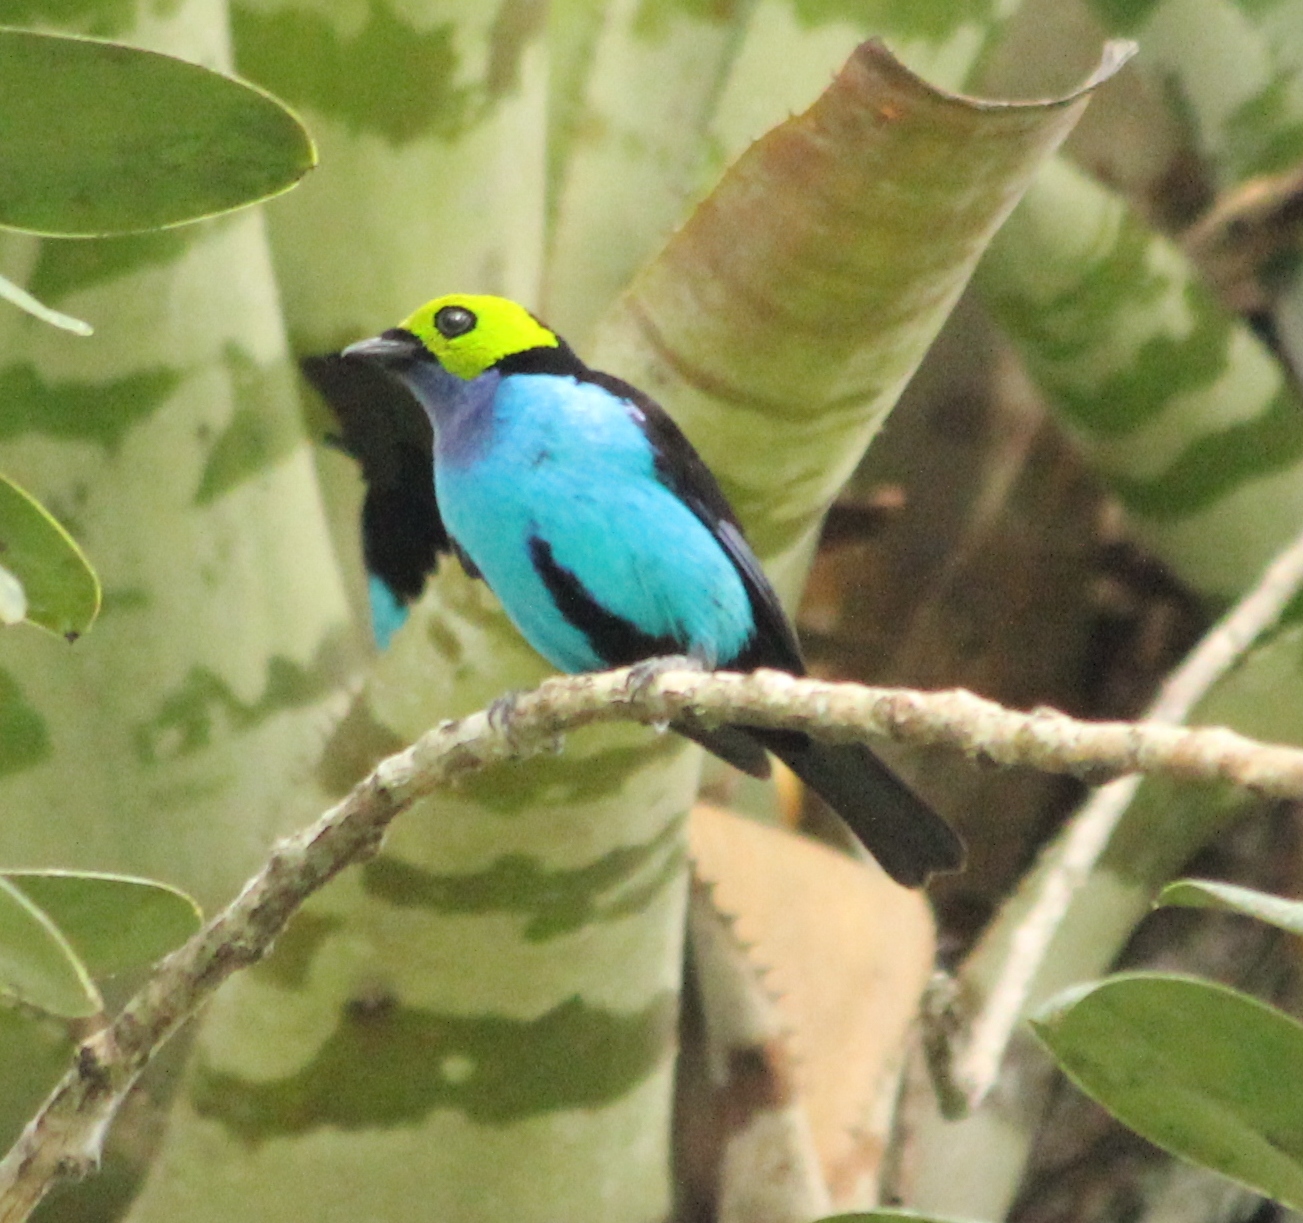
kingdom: Animalia
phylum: Chordata
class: Aves
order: Passeriformes
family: Thraupidae
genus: Tangara
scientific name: Tangara chilensis
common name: Paradise tanager
